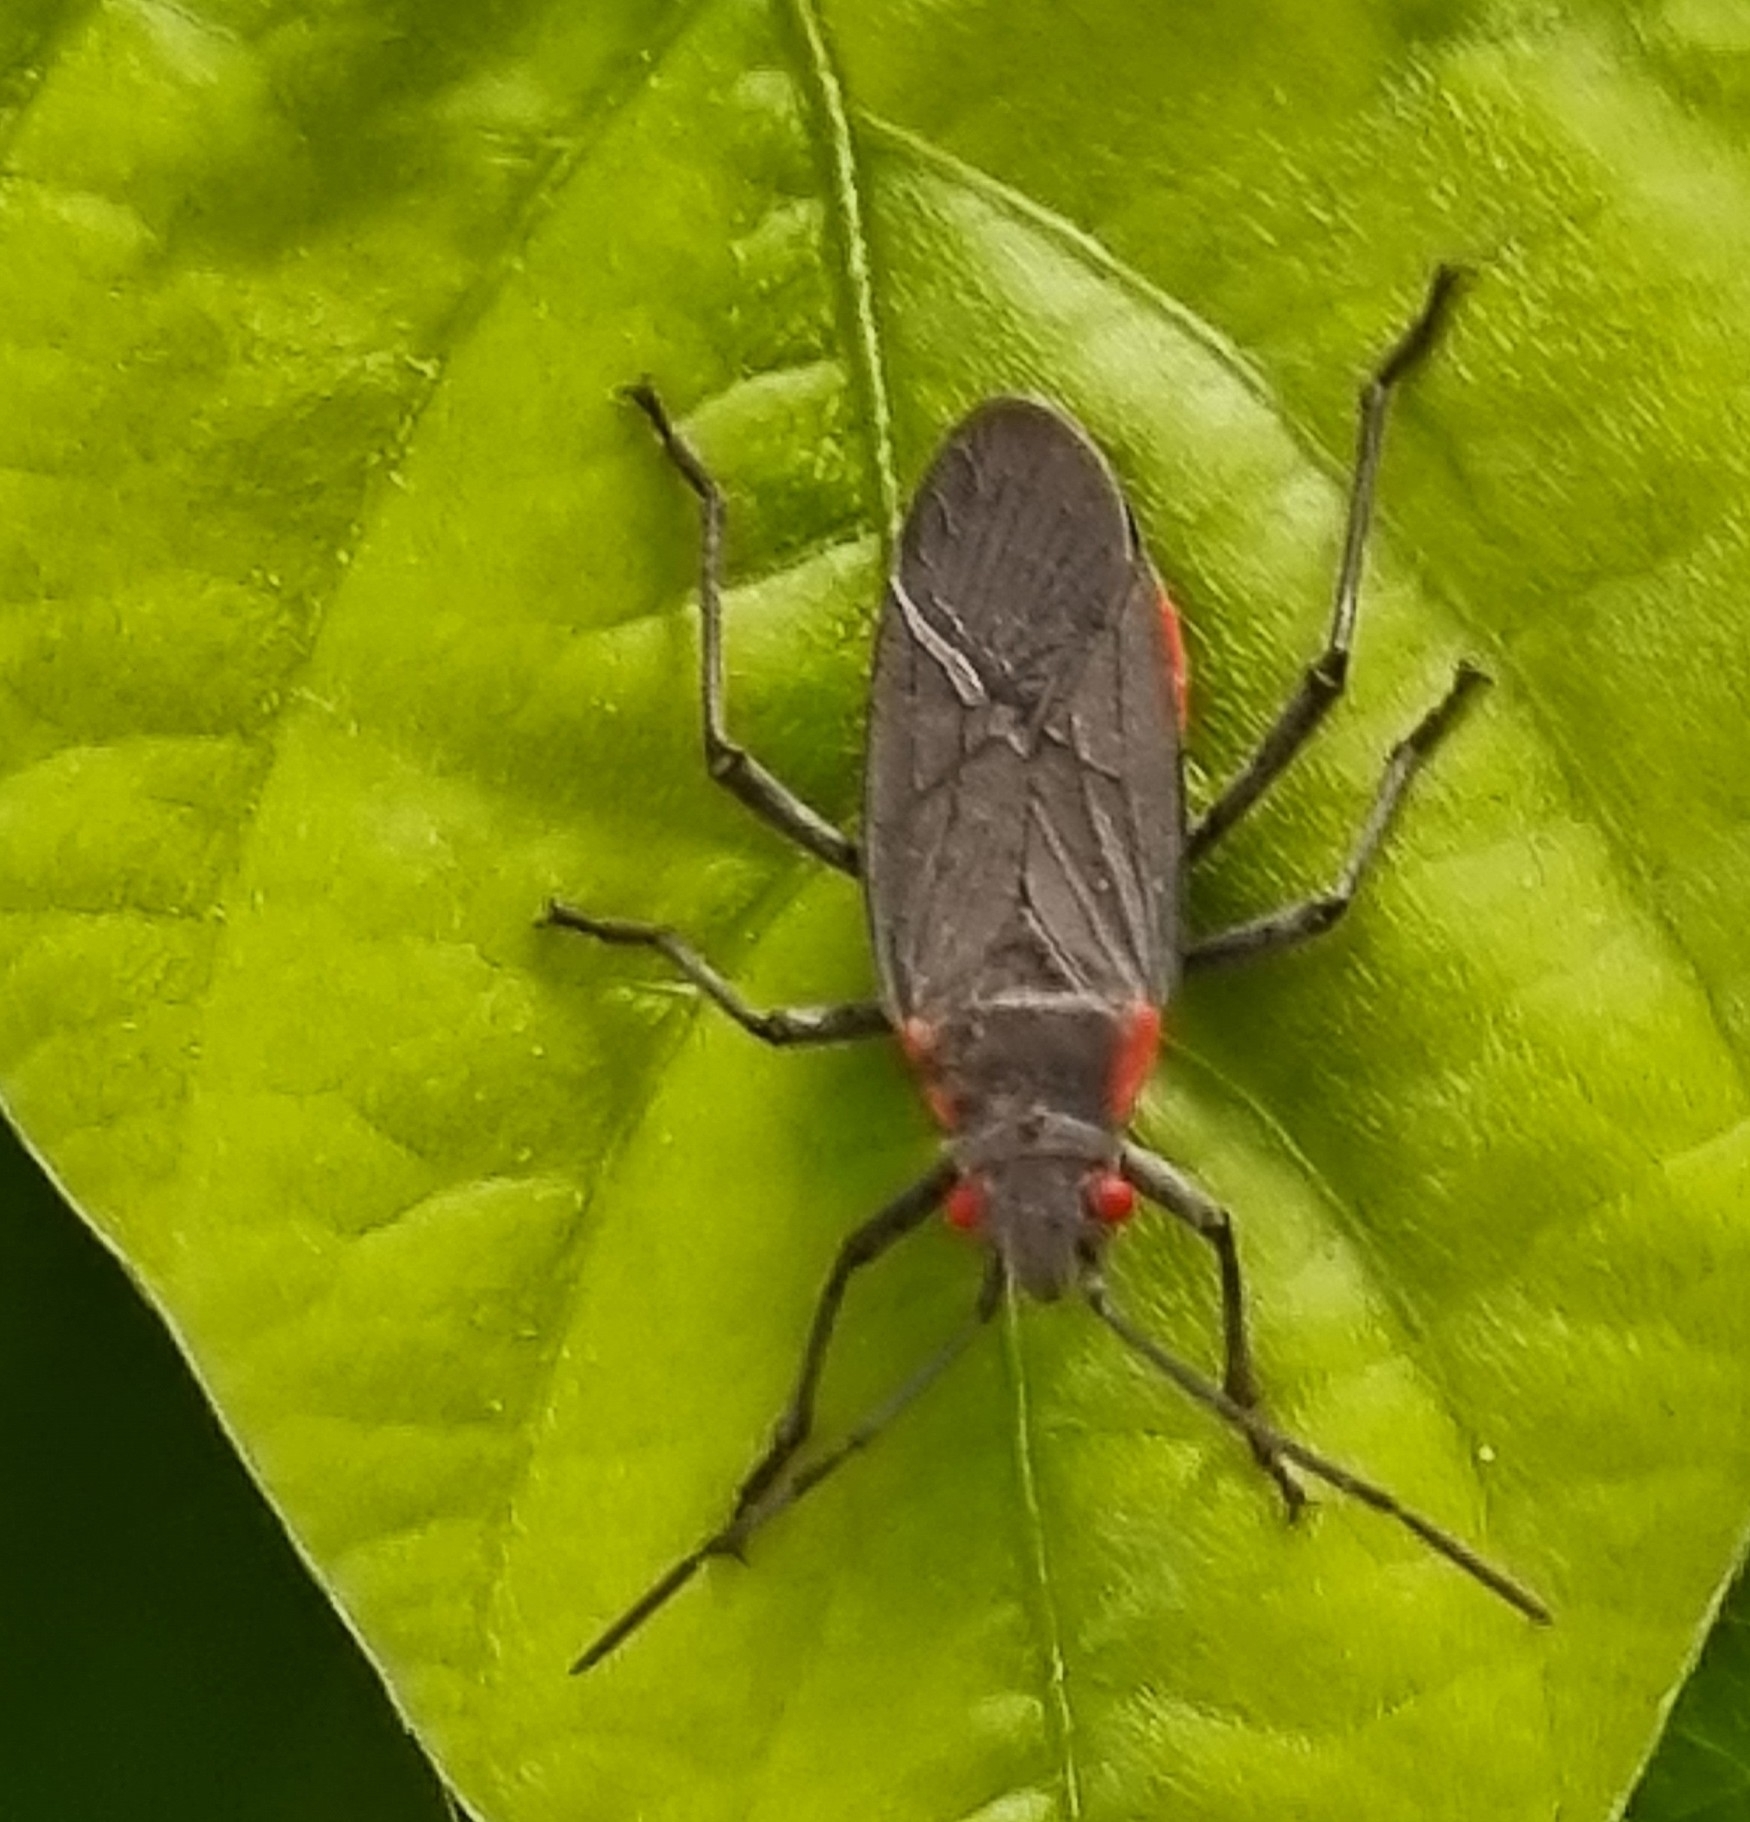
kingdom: Animalia
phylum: Arthropoda
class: Insecta
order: Hemiptera
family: Rhopalidae
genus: Jadera
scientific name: Jadera haematoloma
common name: Red-shouldered bug
